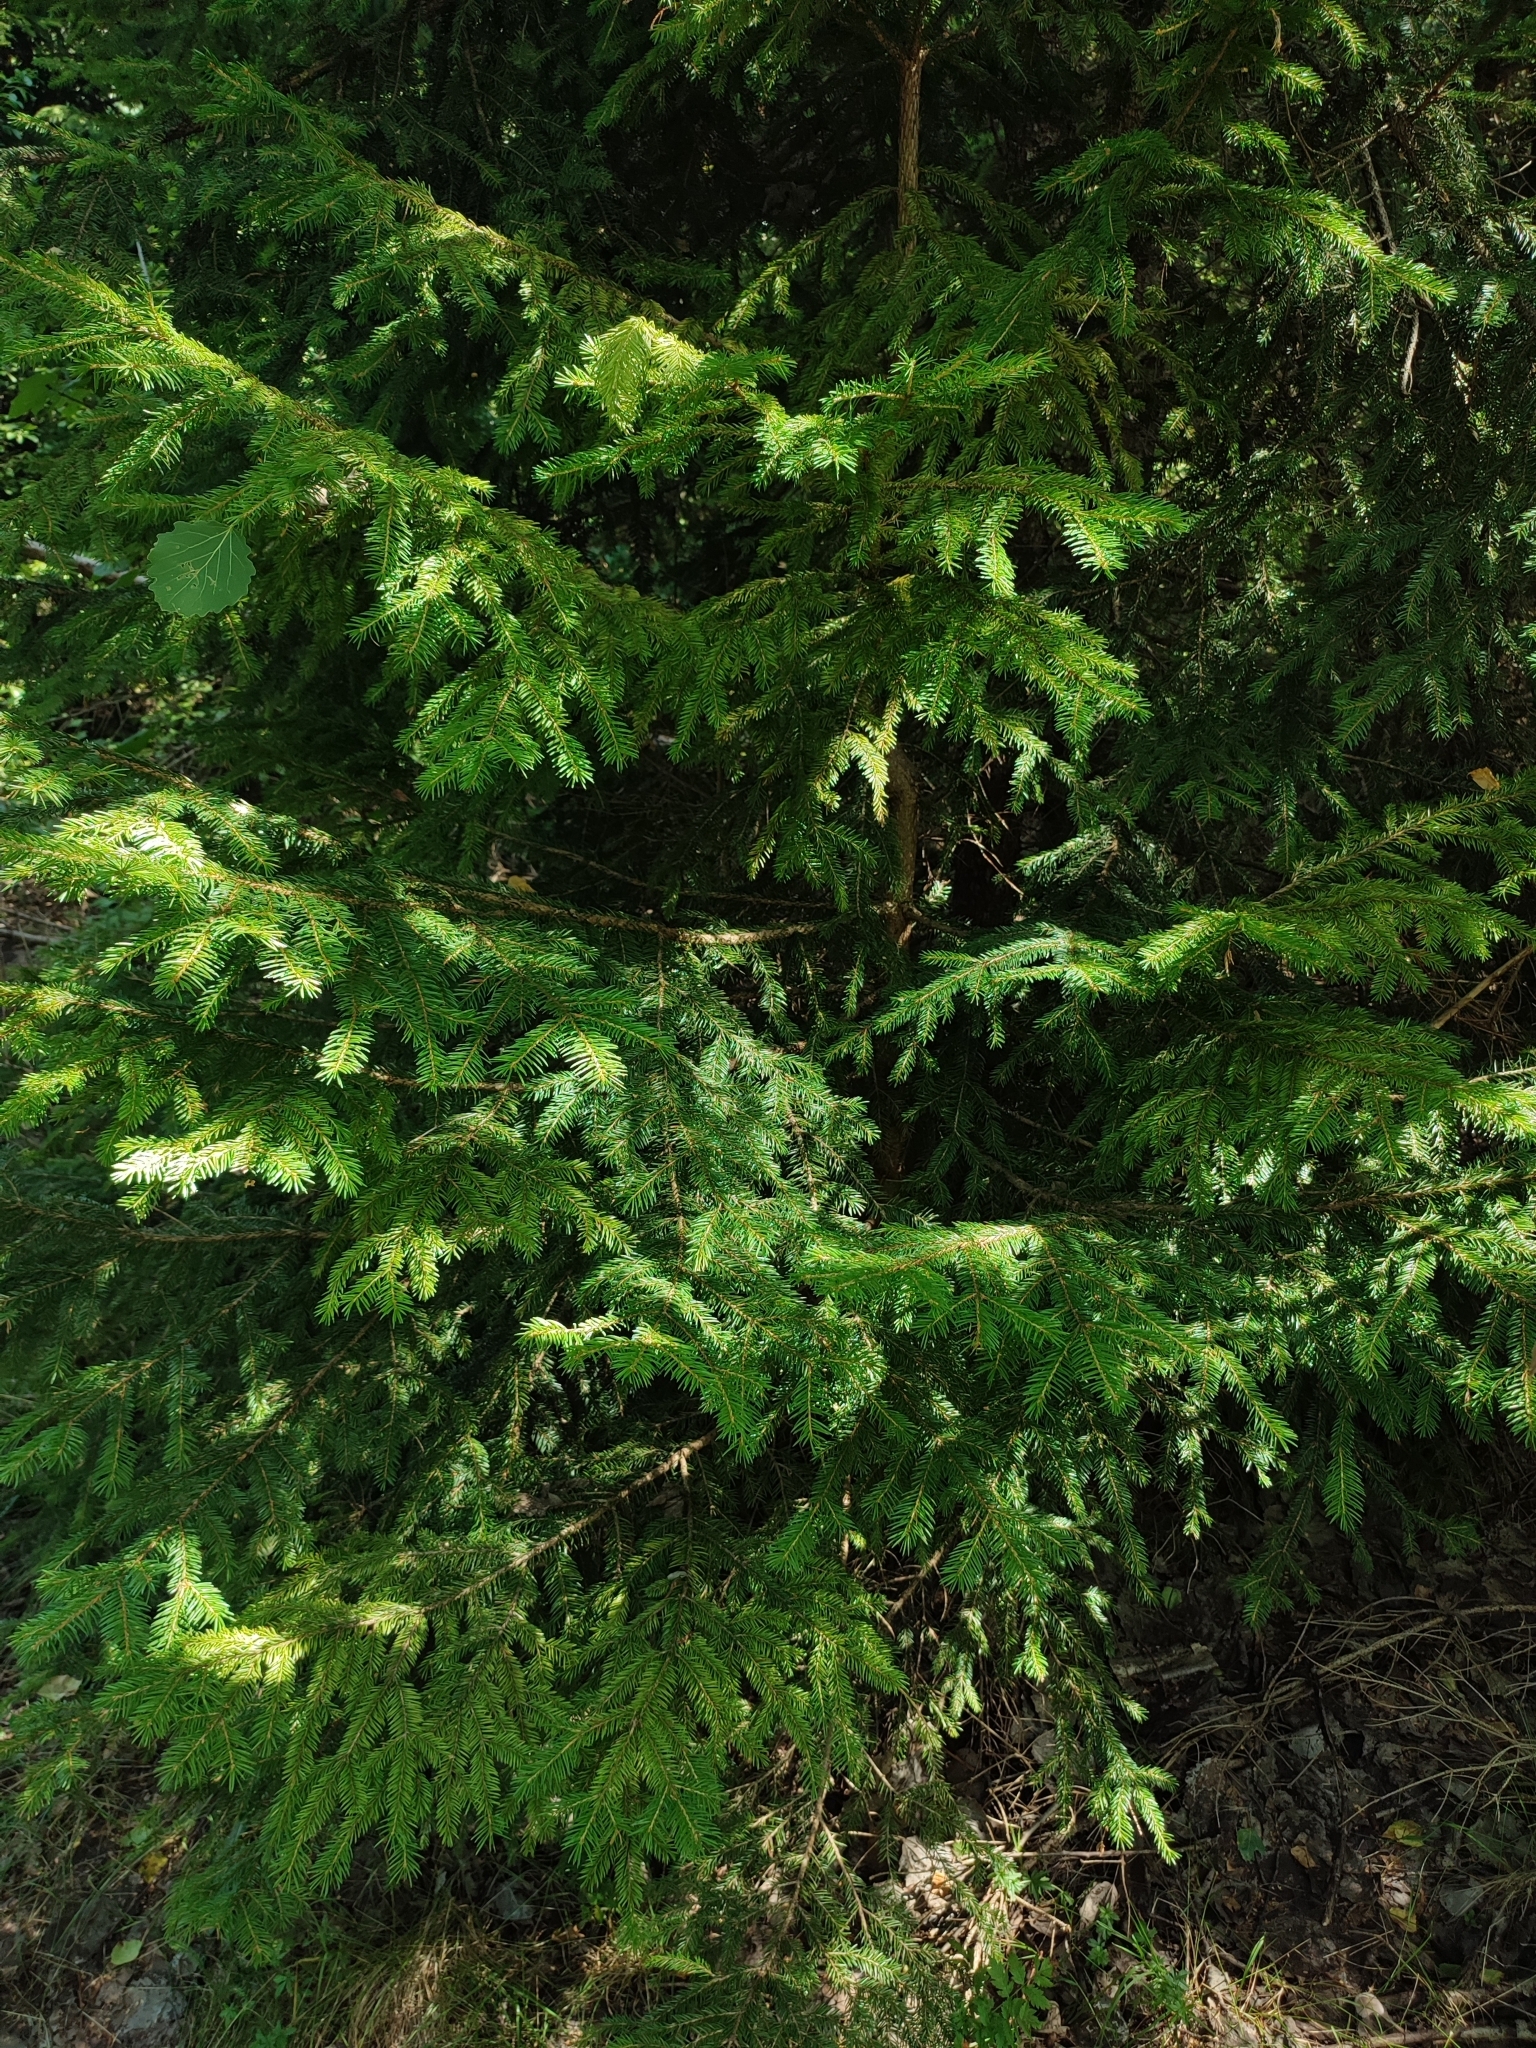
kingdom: Plantae
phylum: Tracheophyta
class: Pinopsida
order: Pinales
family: Pinaceae
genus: Picea
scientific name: Picea abies
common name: Norway spruce
